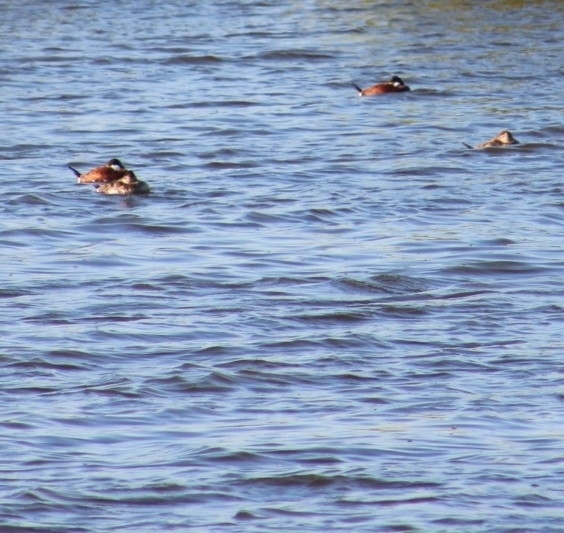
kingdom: Animalia
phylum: Chordata
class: Aves
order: Anseriformes
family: Anatidae
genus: Oxyura
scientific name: Oxyura jamaicensis
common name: Ruddy duck
